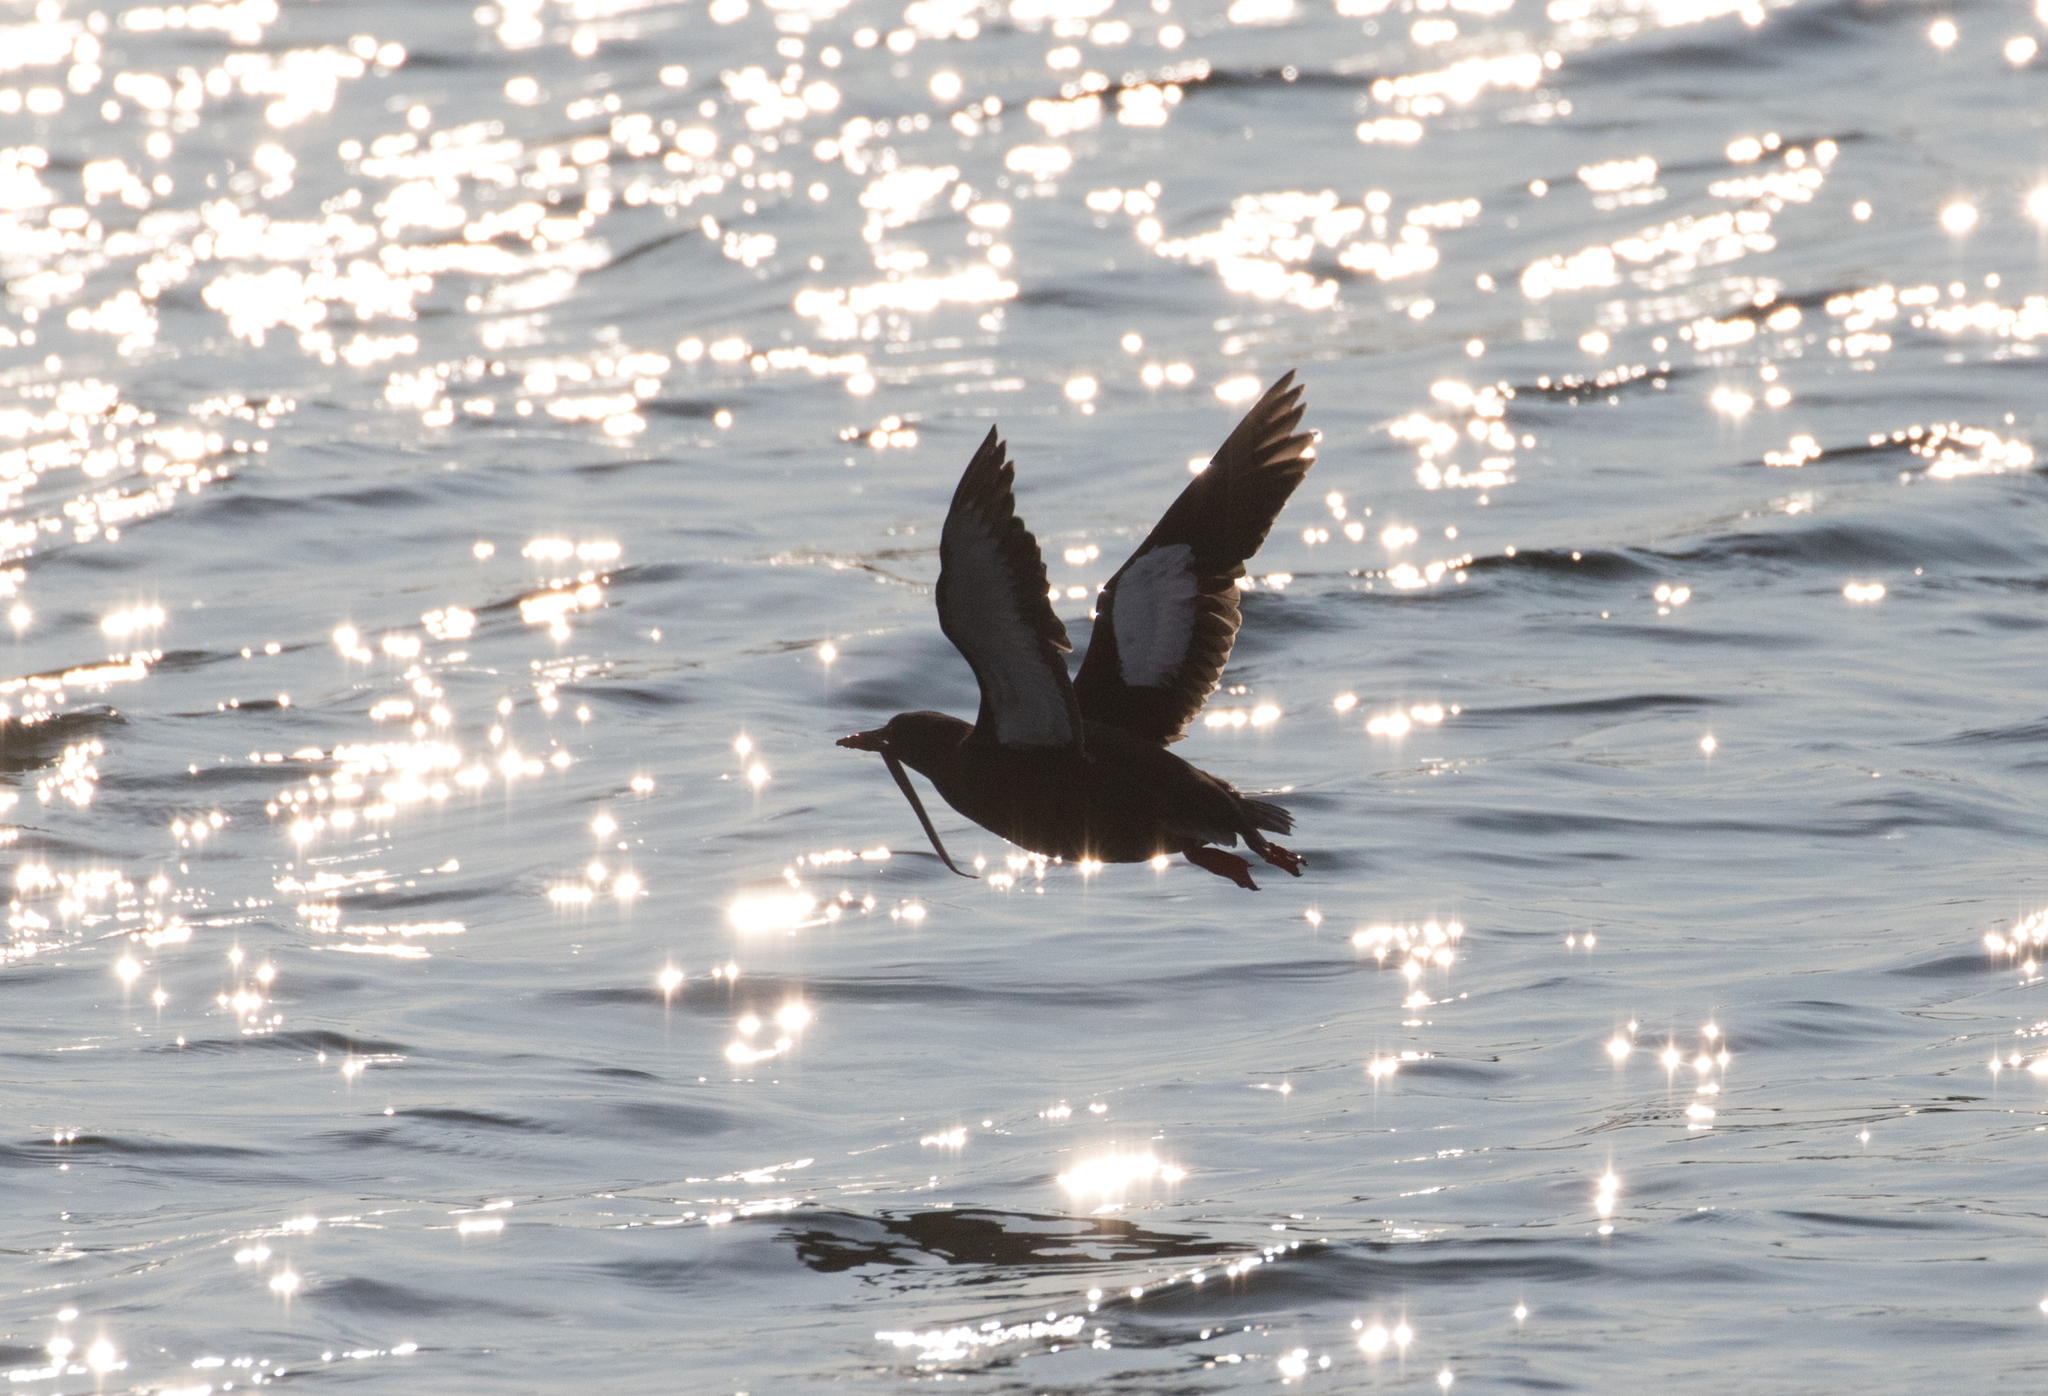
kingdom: Animalia
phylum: Chordata
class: Aves
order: Charadriiformes
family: Alcidae
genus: Cepphus
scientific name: Cepphus grylle
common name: Black guillemot
